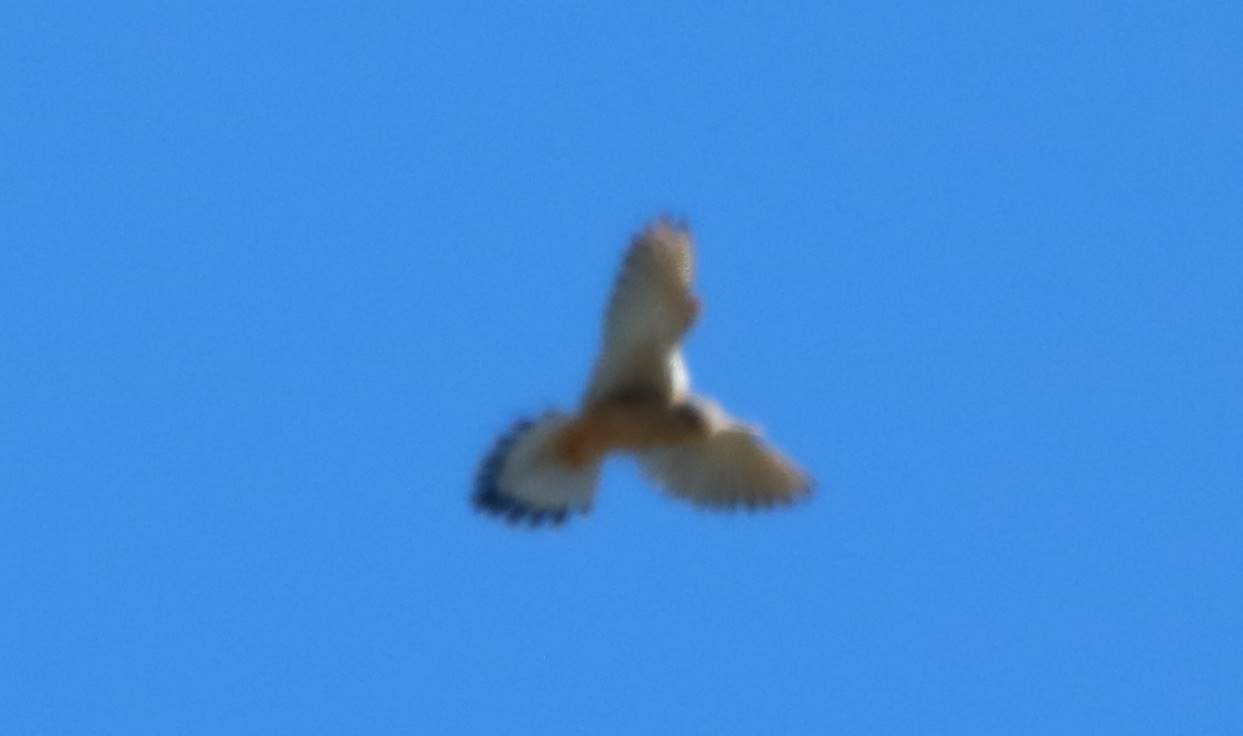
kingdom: Animalia
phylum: Chordata
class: Aves
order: Falconiformes
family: Falconidae
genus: Falco
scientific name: Falco tinnunculus
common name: Common kestrel
